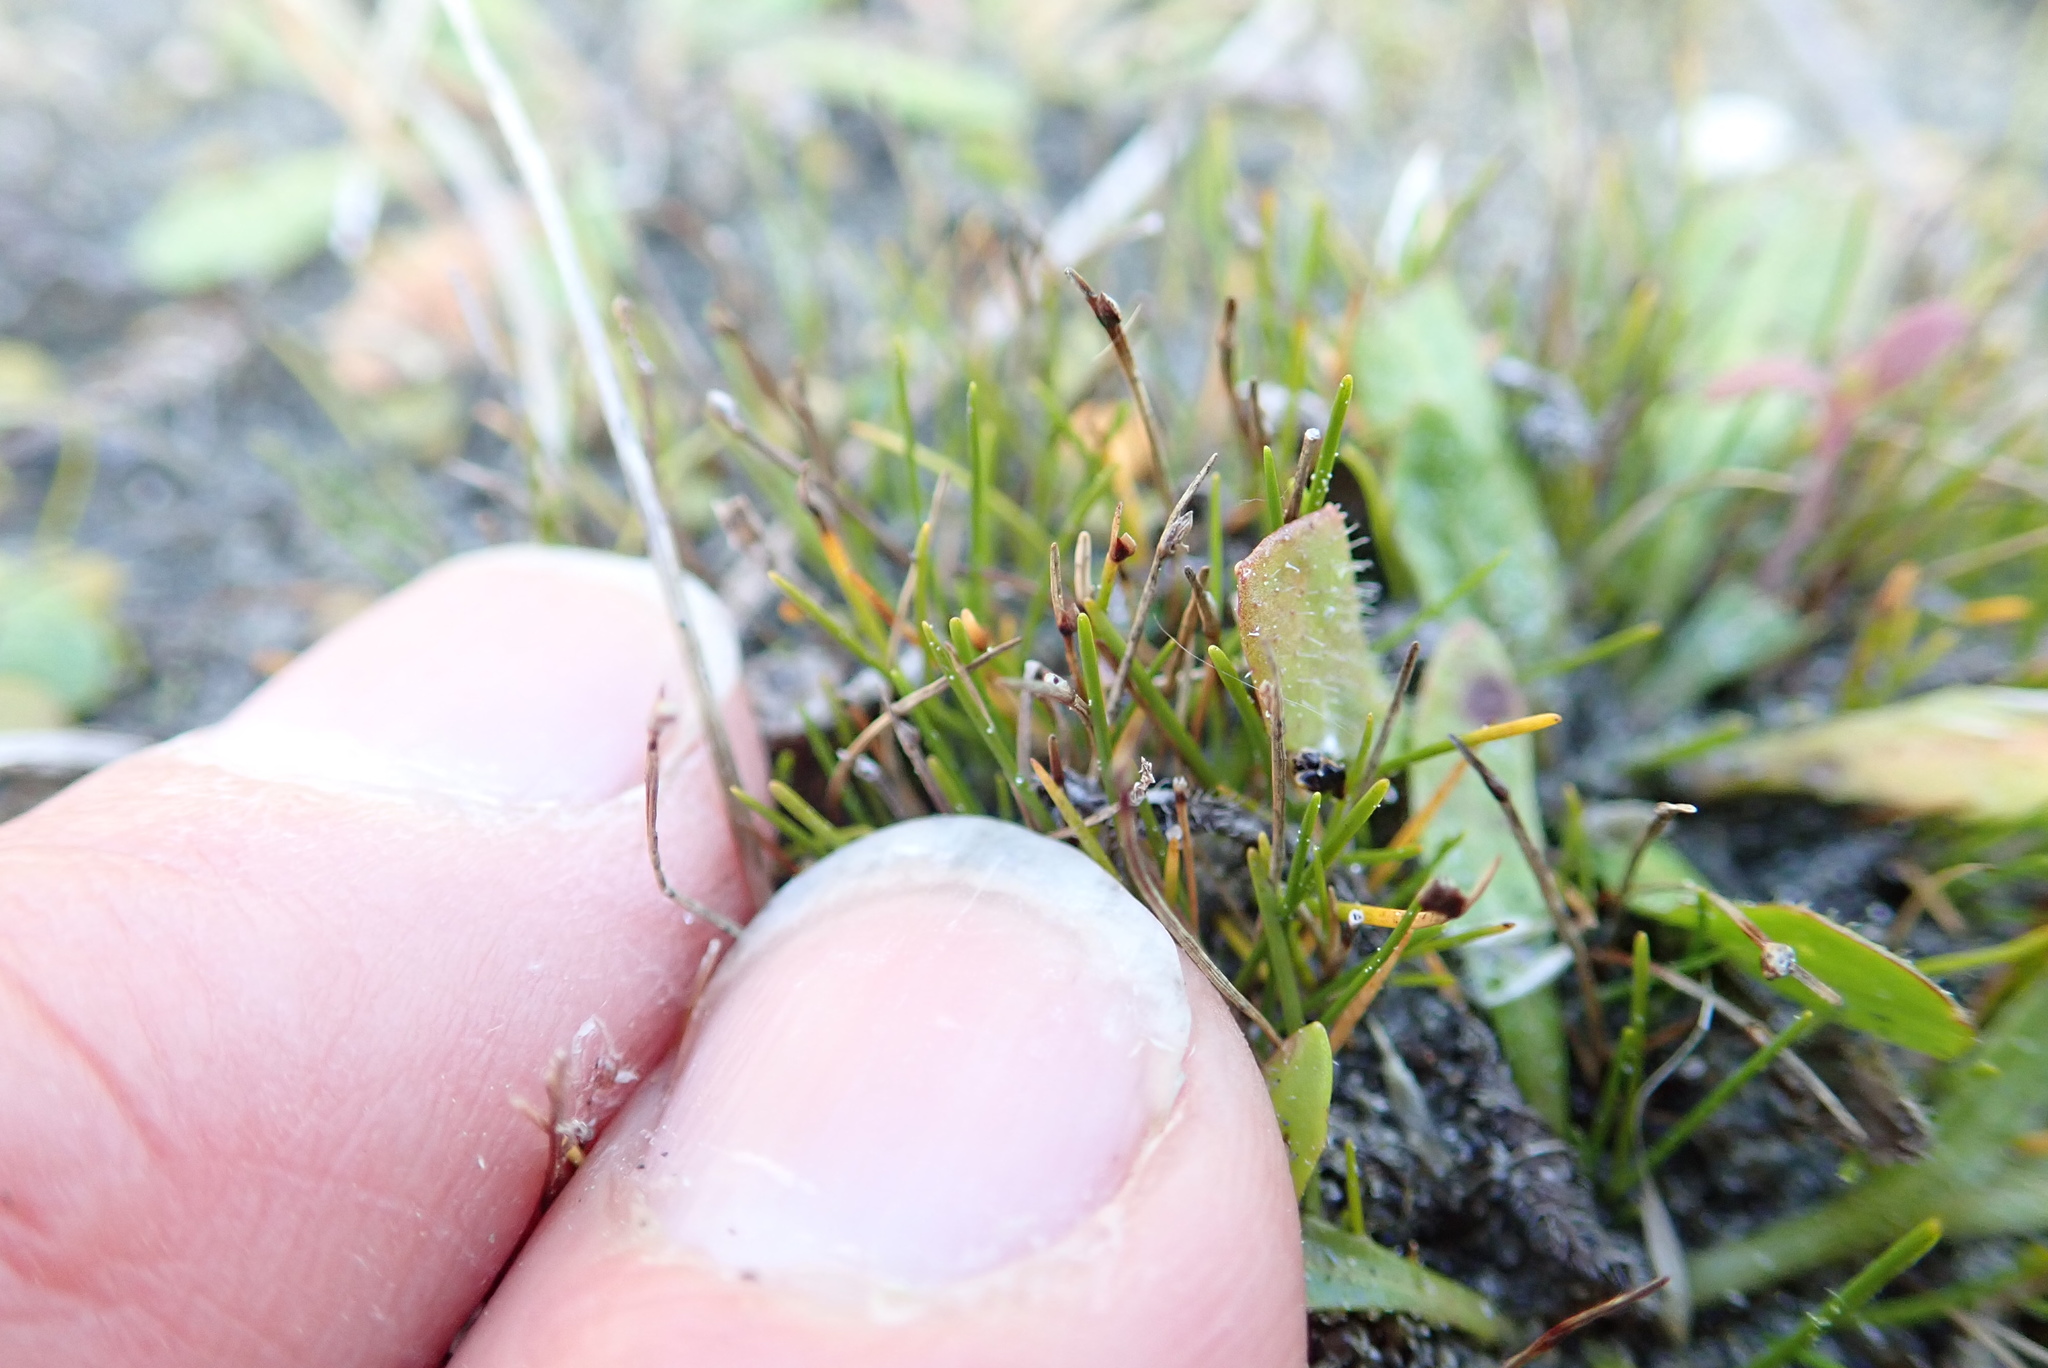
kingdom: Plantae
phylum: Tracheophyta
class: Liliopsida
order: Poales
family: Cyperaceae
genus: Isolepis
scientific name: Isolepis cernua
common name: Slender club-rush
